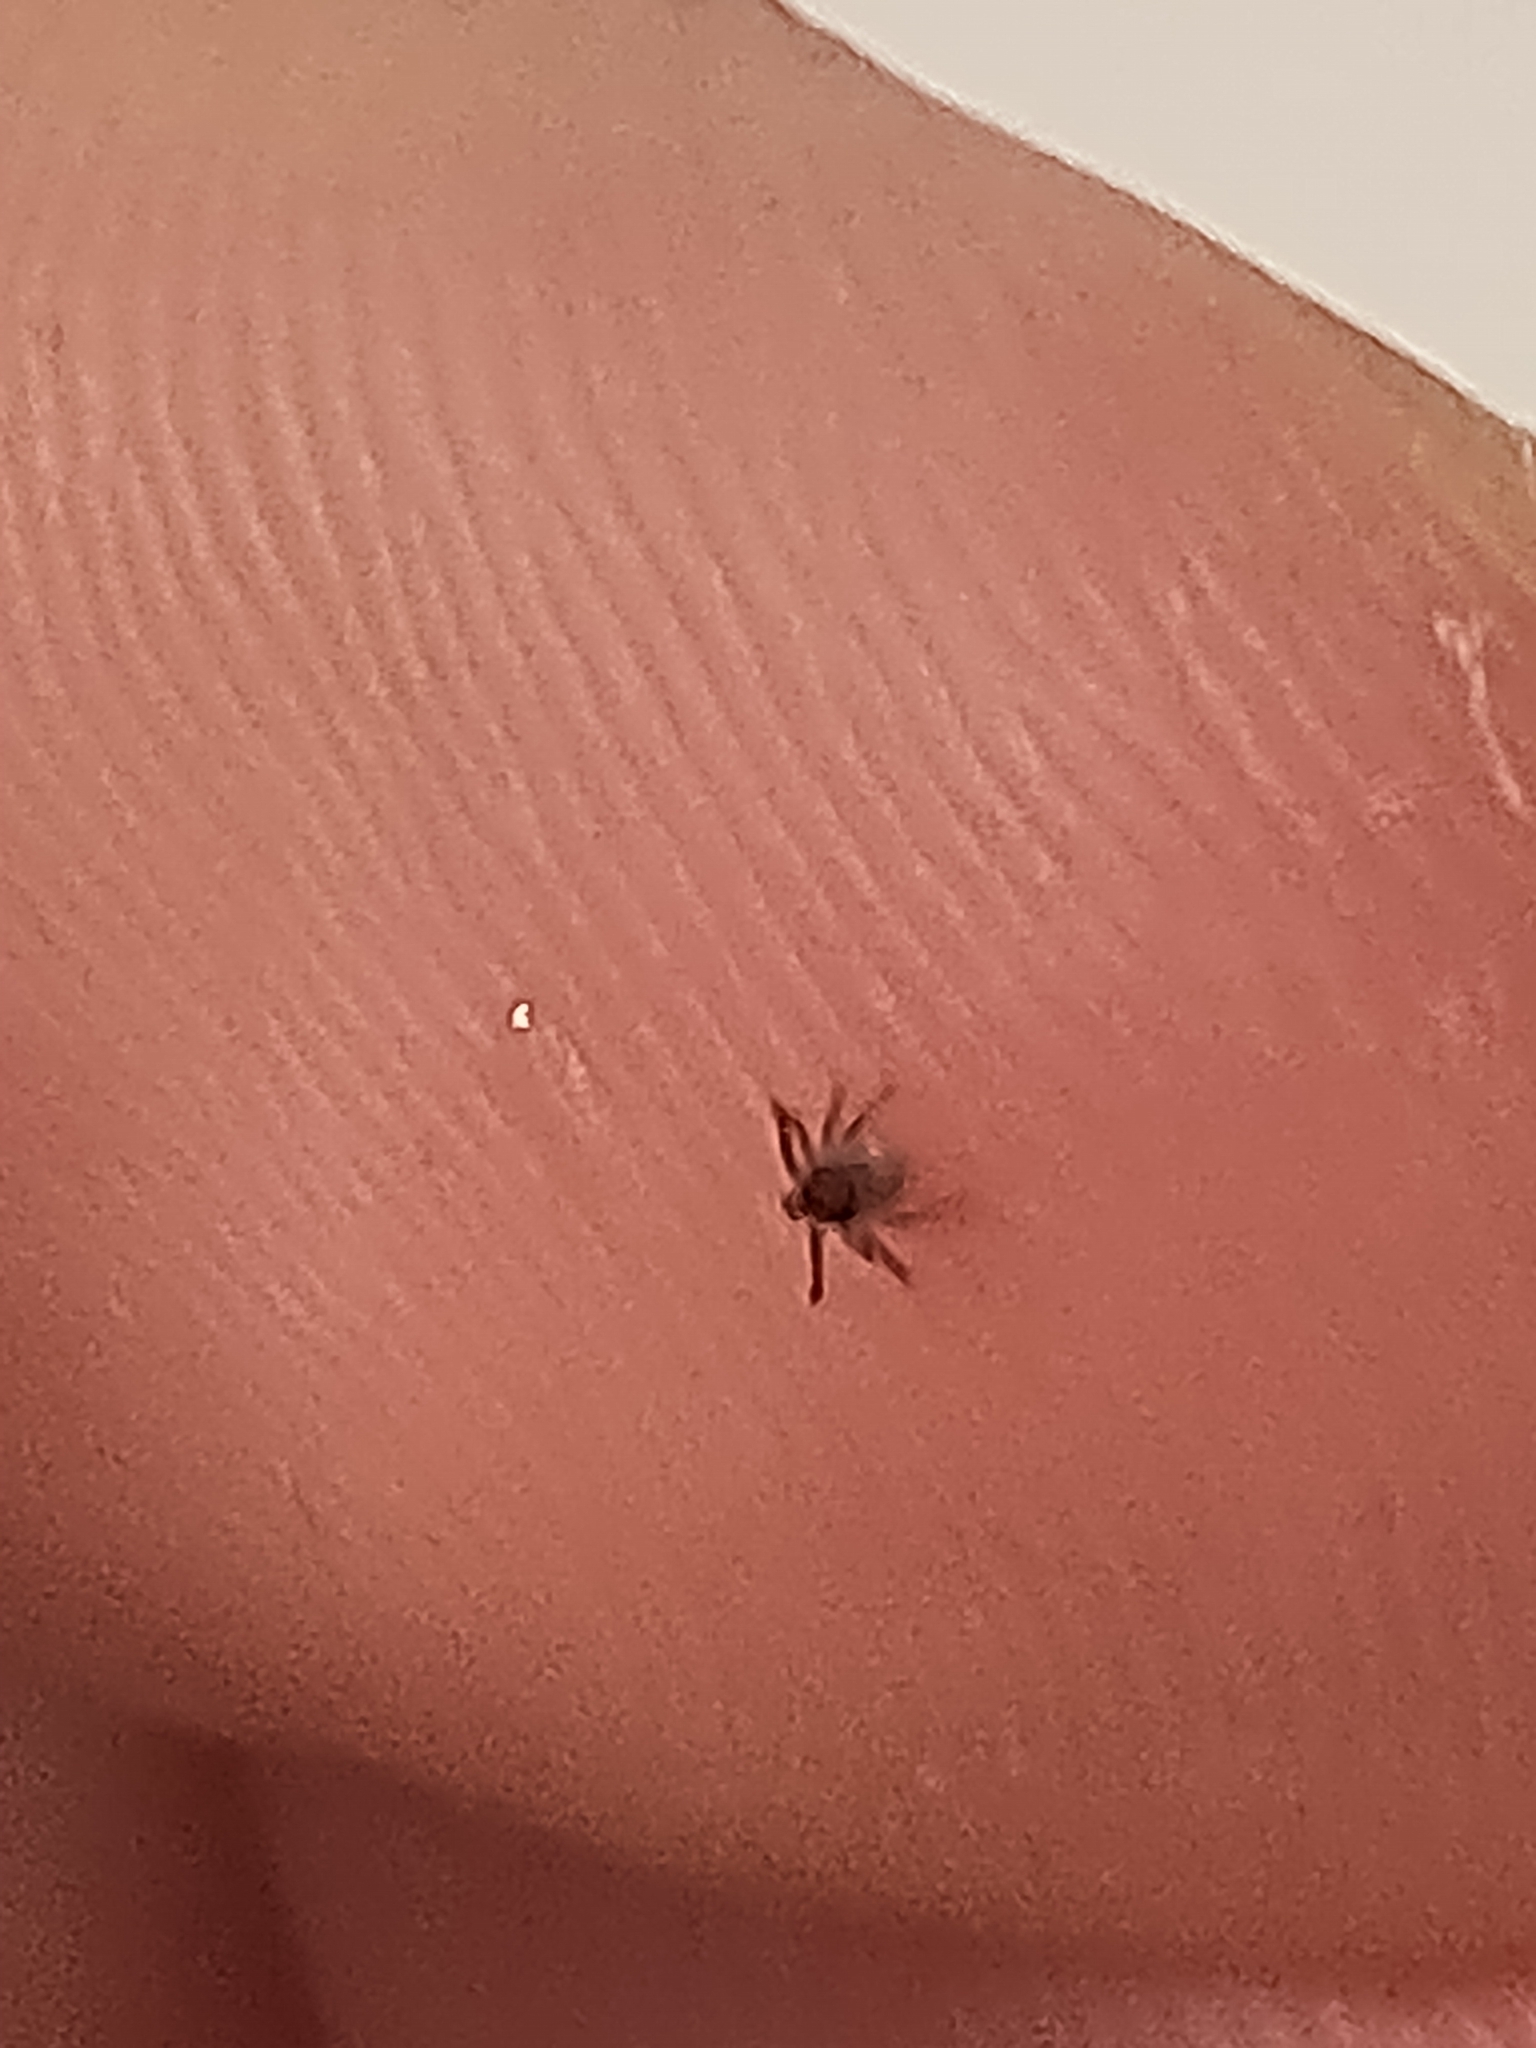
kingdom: Animalia
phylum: Arthropoda
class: Arachnida
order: Ixodida
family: Ixodidae
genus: Ixodes
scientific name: Ixodes ricinus
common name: Castor bean tick
